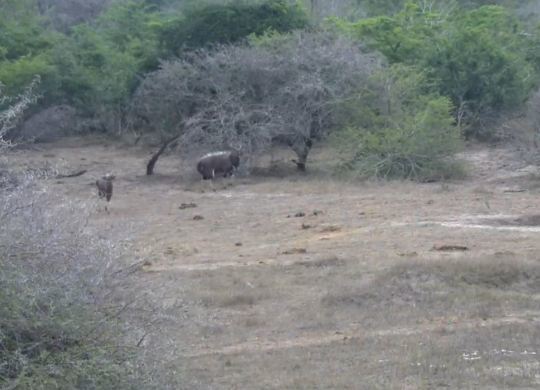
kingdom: Animalia
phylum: Chordata
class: Mammalia
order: Artiodactyla
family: Bovidae
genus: Tragelaphus
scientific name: Tragelaphus angasii
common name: Nyala
